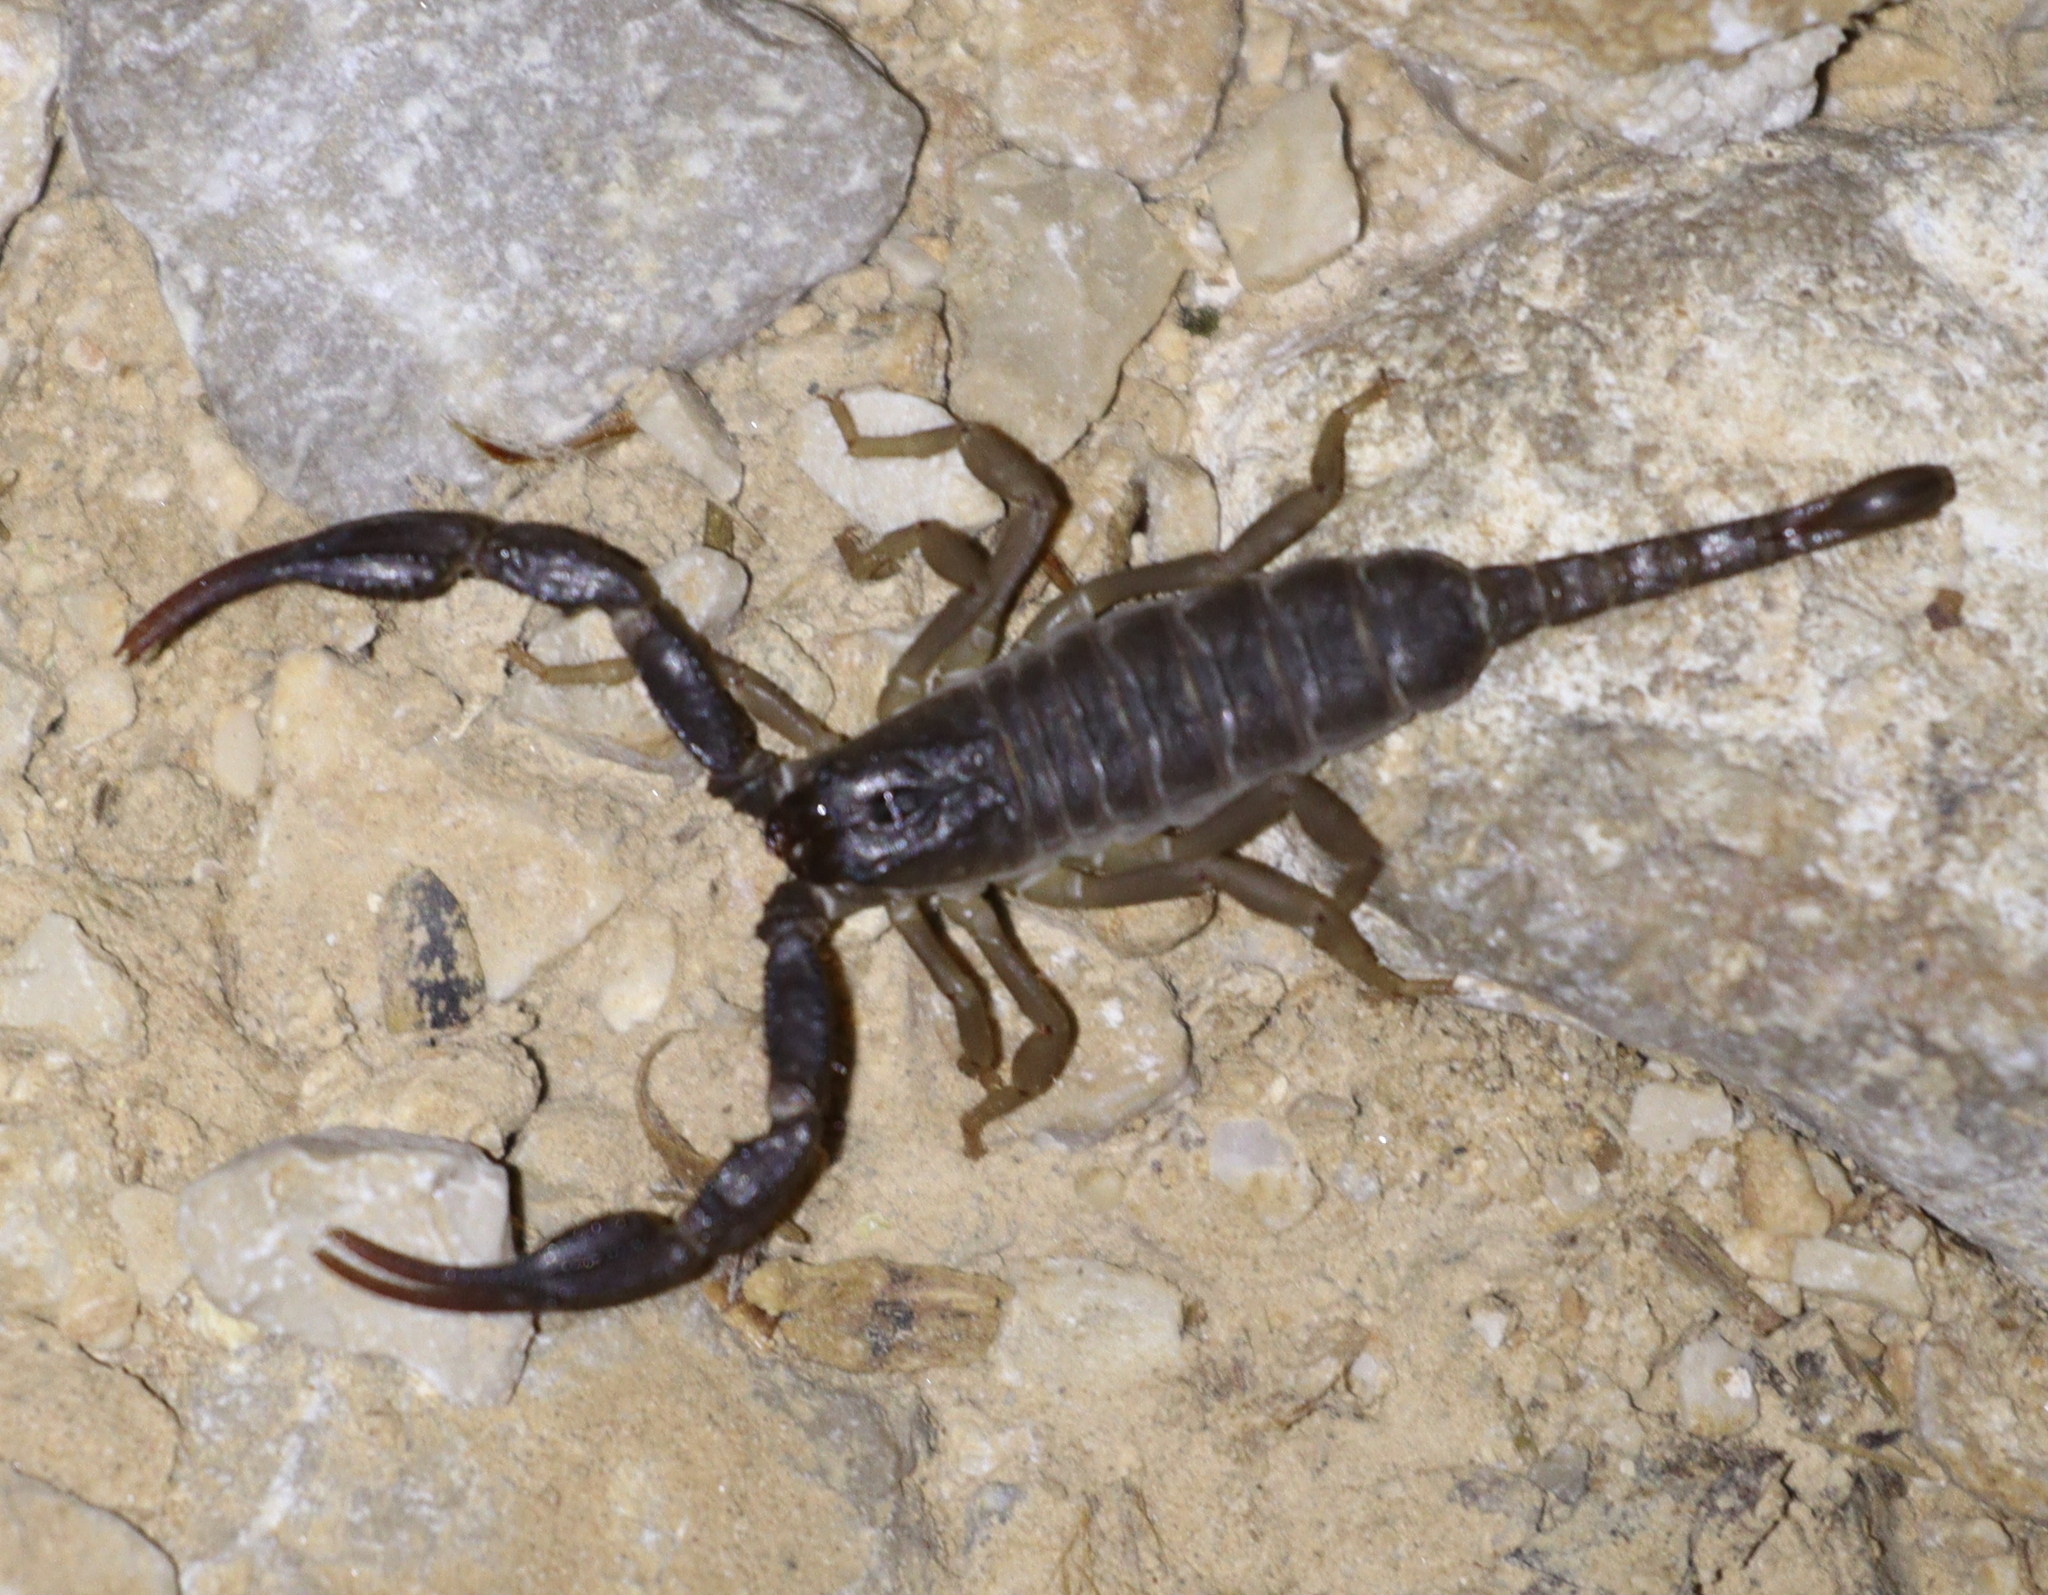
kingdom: Animalia
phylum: Arthropoda
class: Arachnida
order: Scorpiones
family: Iuridae
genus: Anatoliurus
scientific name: Anatoliurus kraepelini
